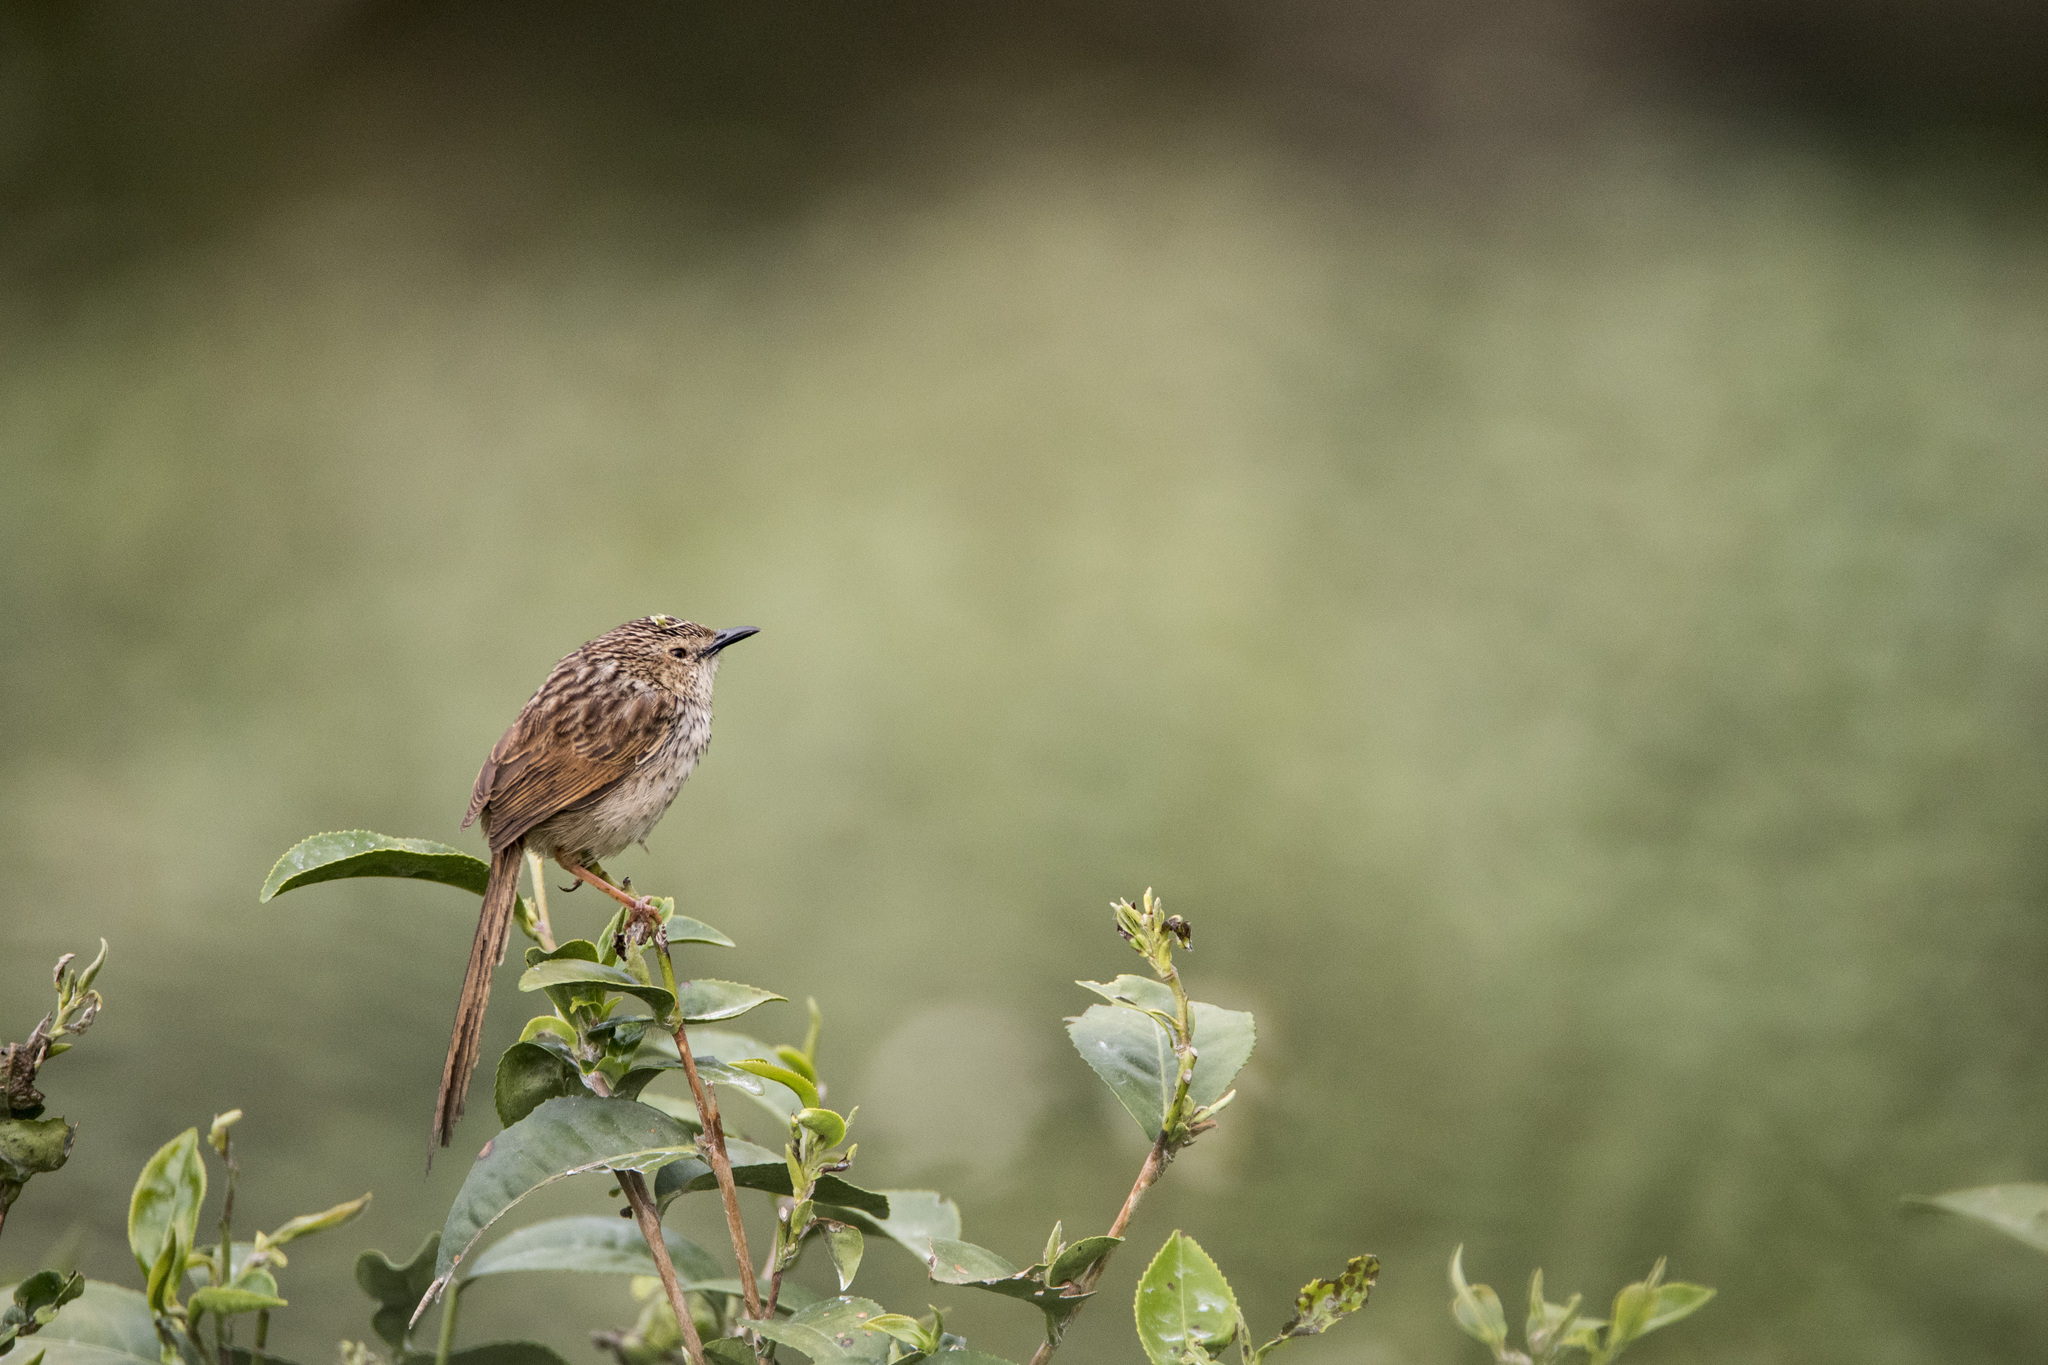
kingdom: Animalia
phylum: Chordata
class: Aves
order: Passeriformes
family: Cisticolidae
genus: Prinia
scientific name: Prinia striata
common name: Striped prinia
